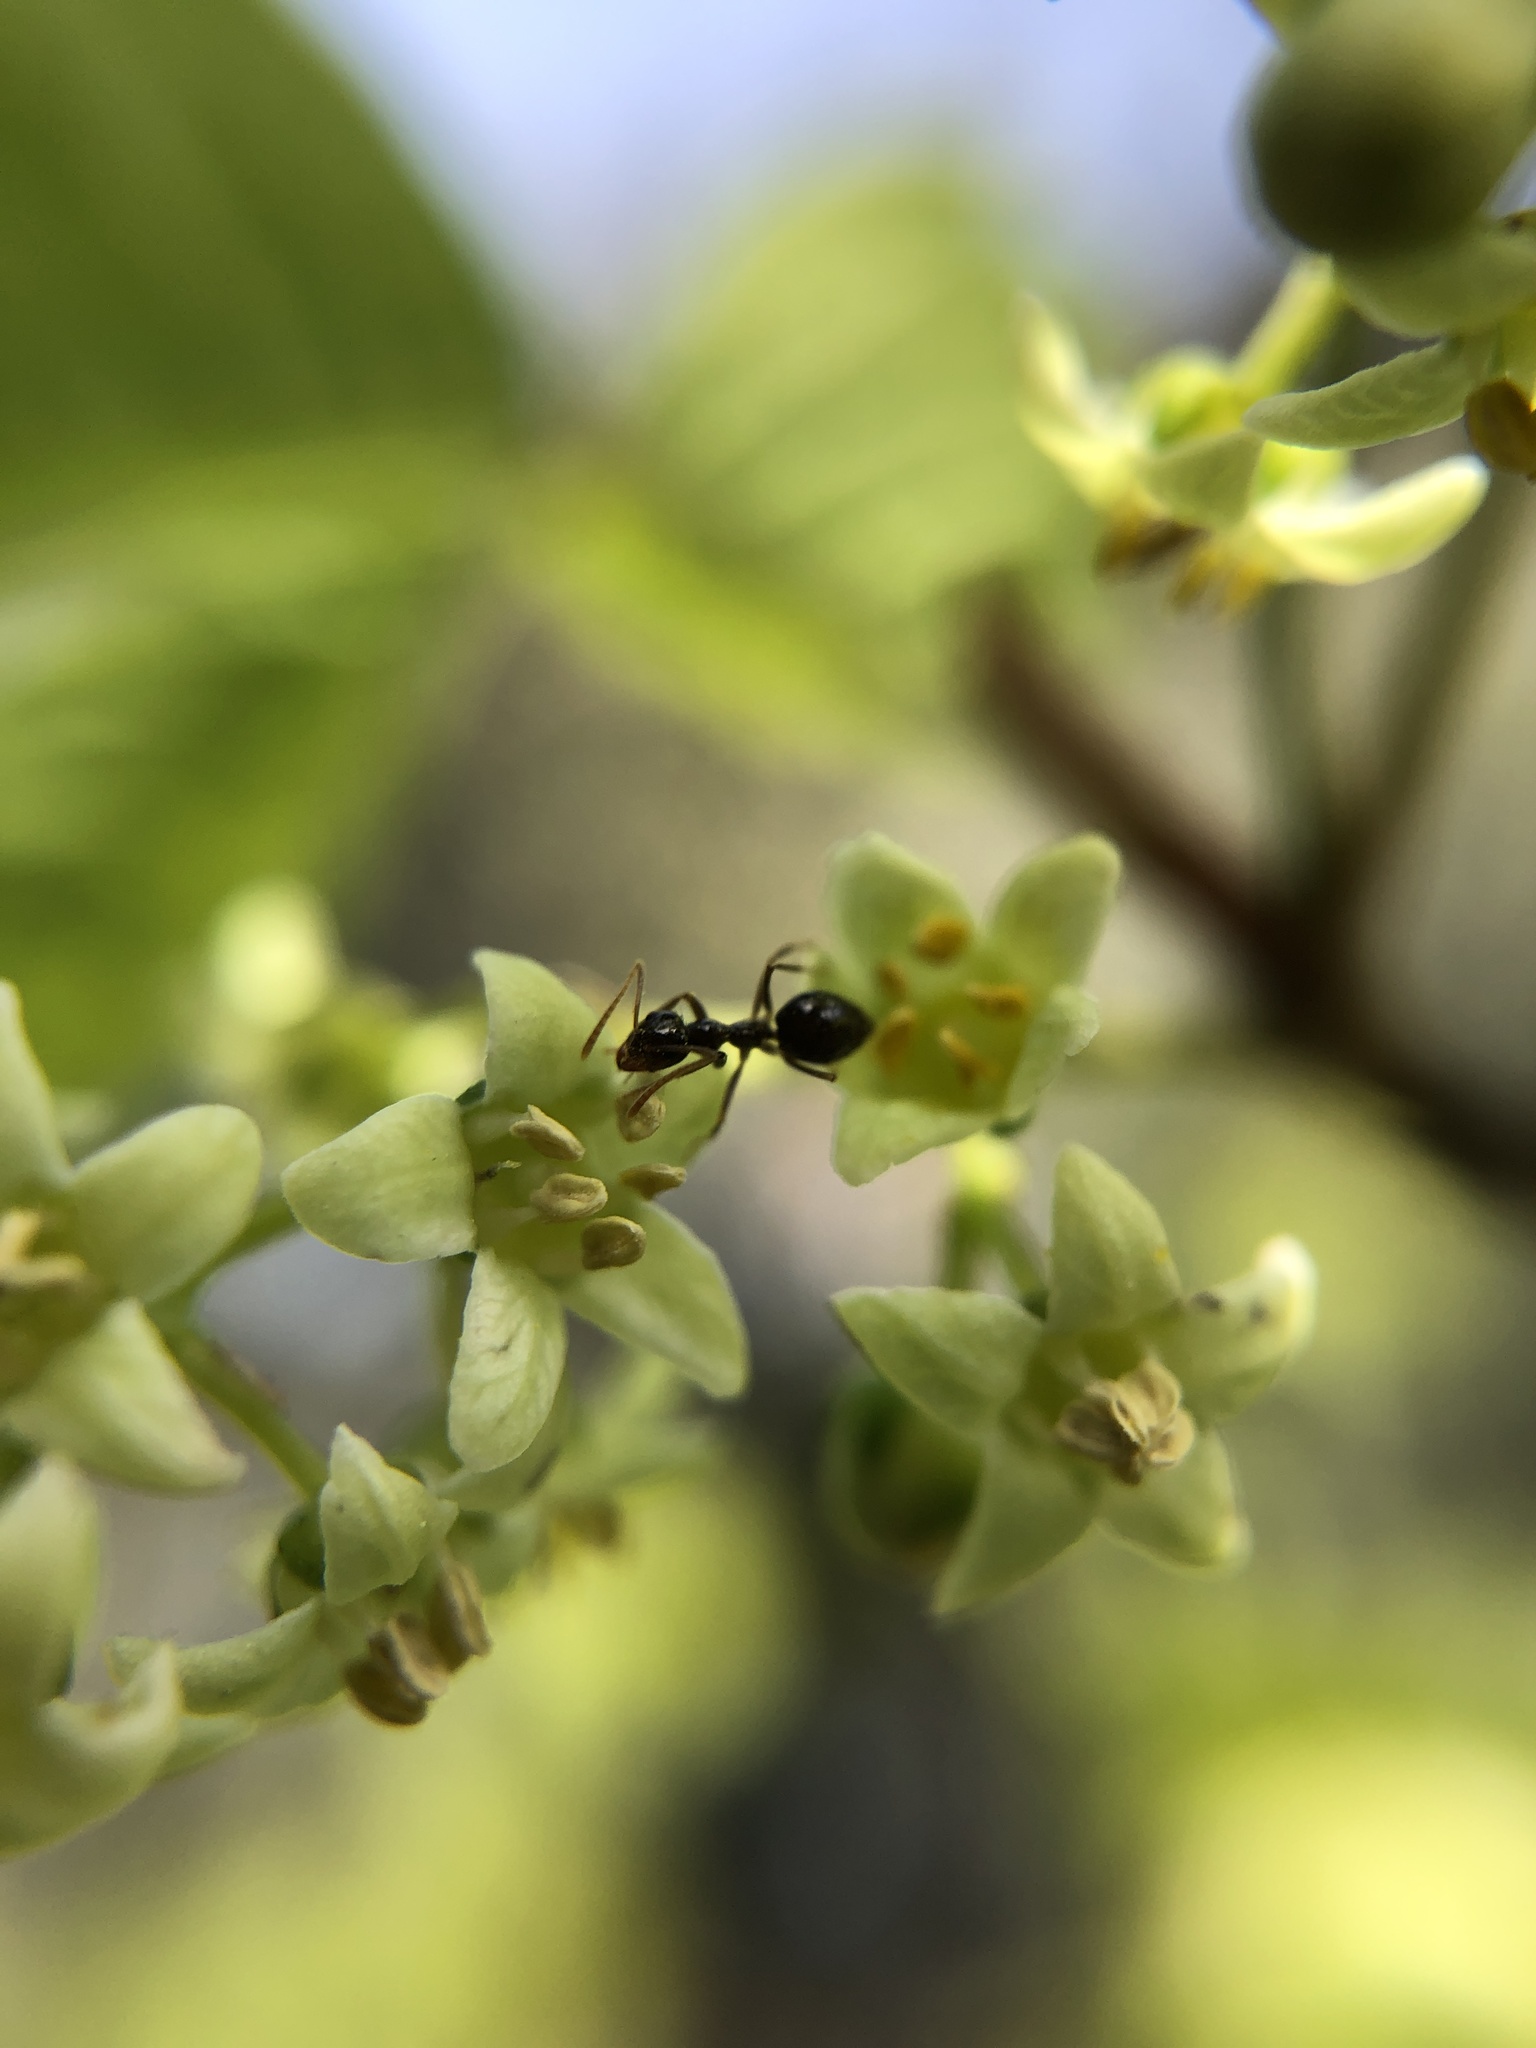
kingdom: Plantae
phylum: Tracheophyta
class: Magnoliopsida
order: Sapindales
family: Anacardiaceae
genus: Toxicodendron
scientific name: Toxicodendron diversilobum
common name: Pacific poison-oak
